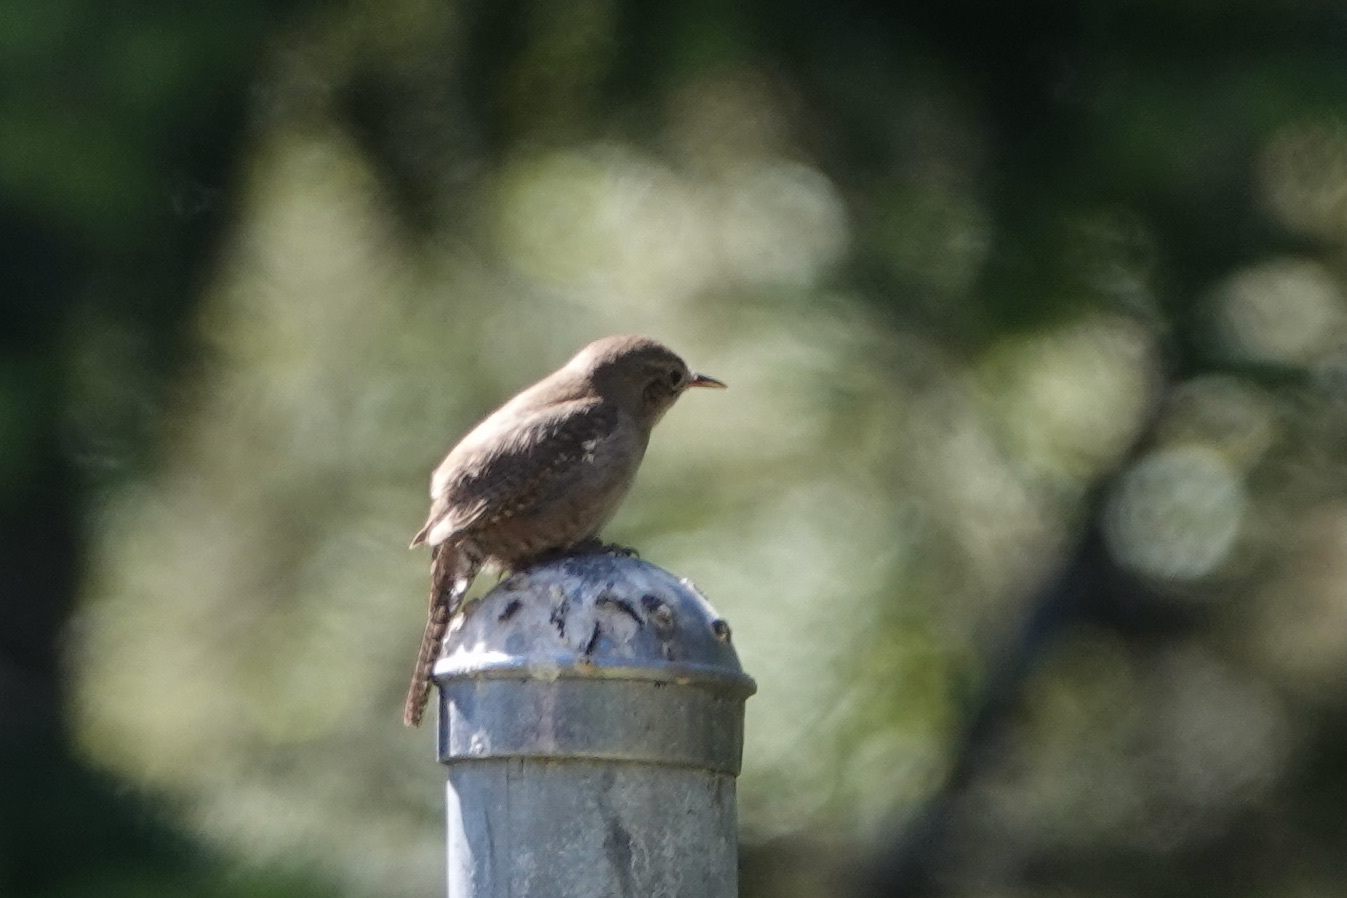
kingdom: Animalia
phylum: Chordata
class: Aves
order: Passeriformes
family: Troglodytidae
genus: Troglodytes
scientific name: Troglodytes aedon
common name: House wren
